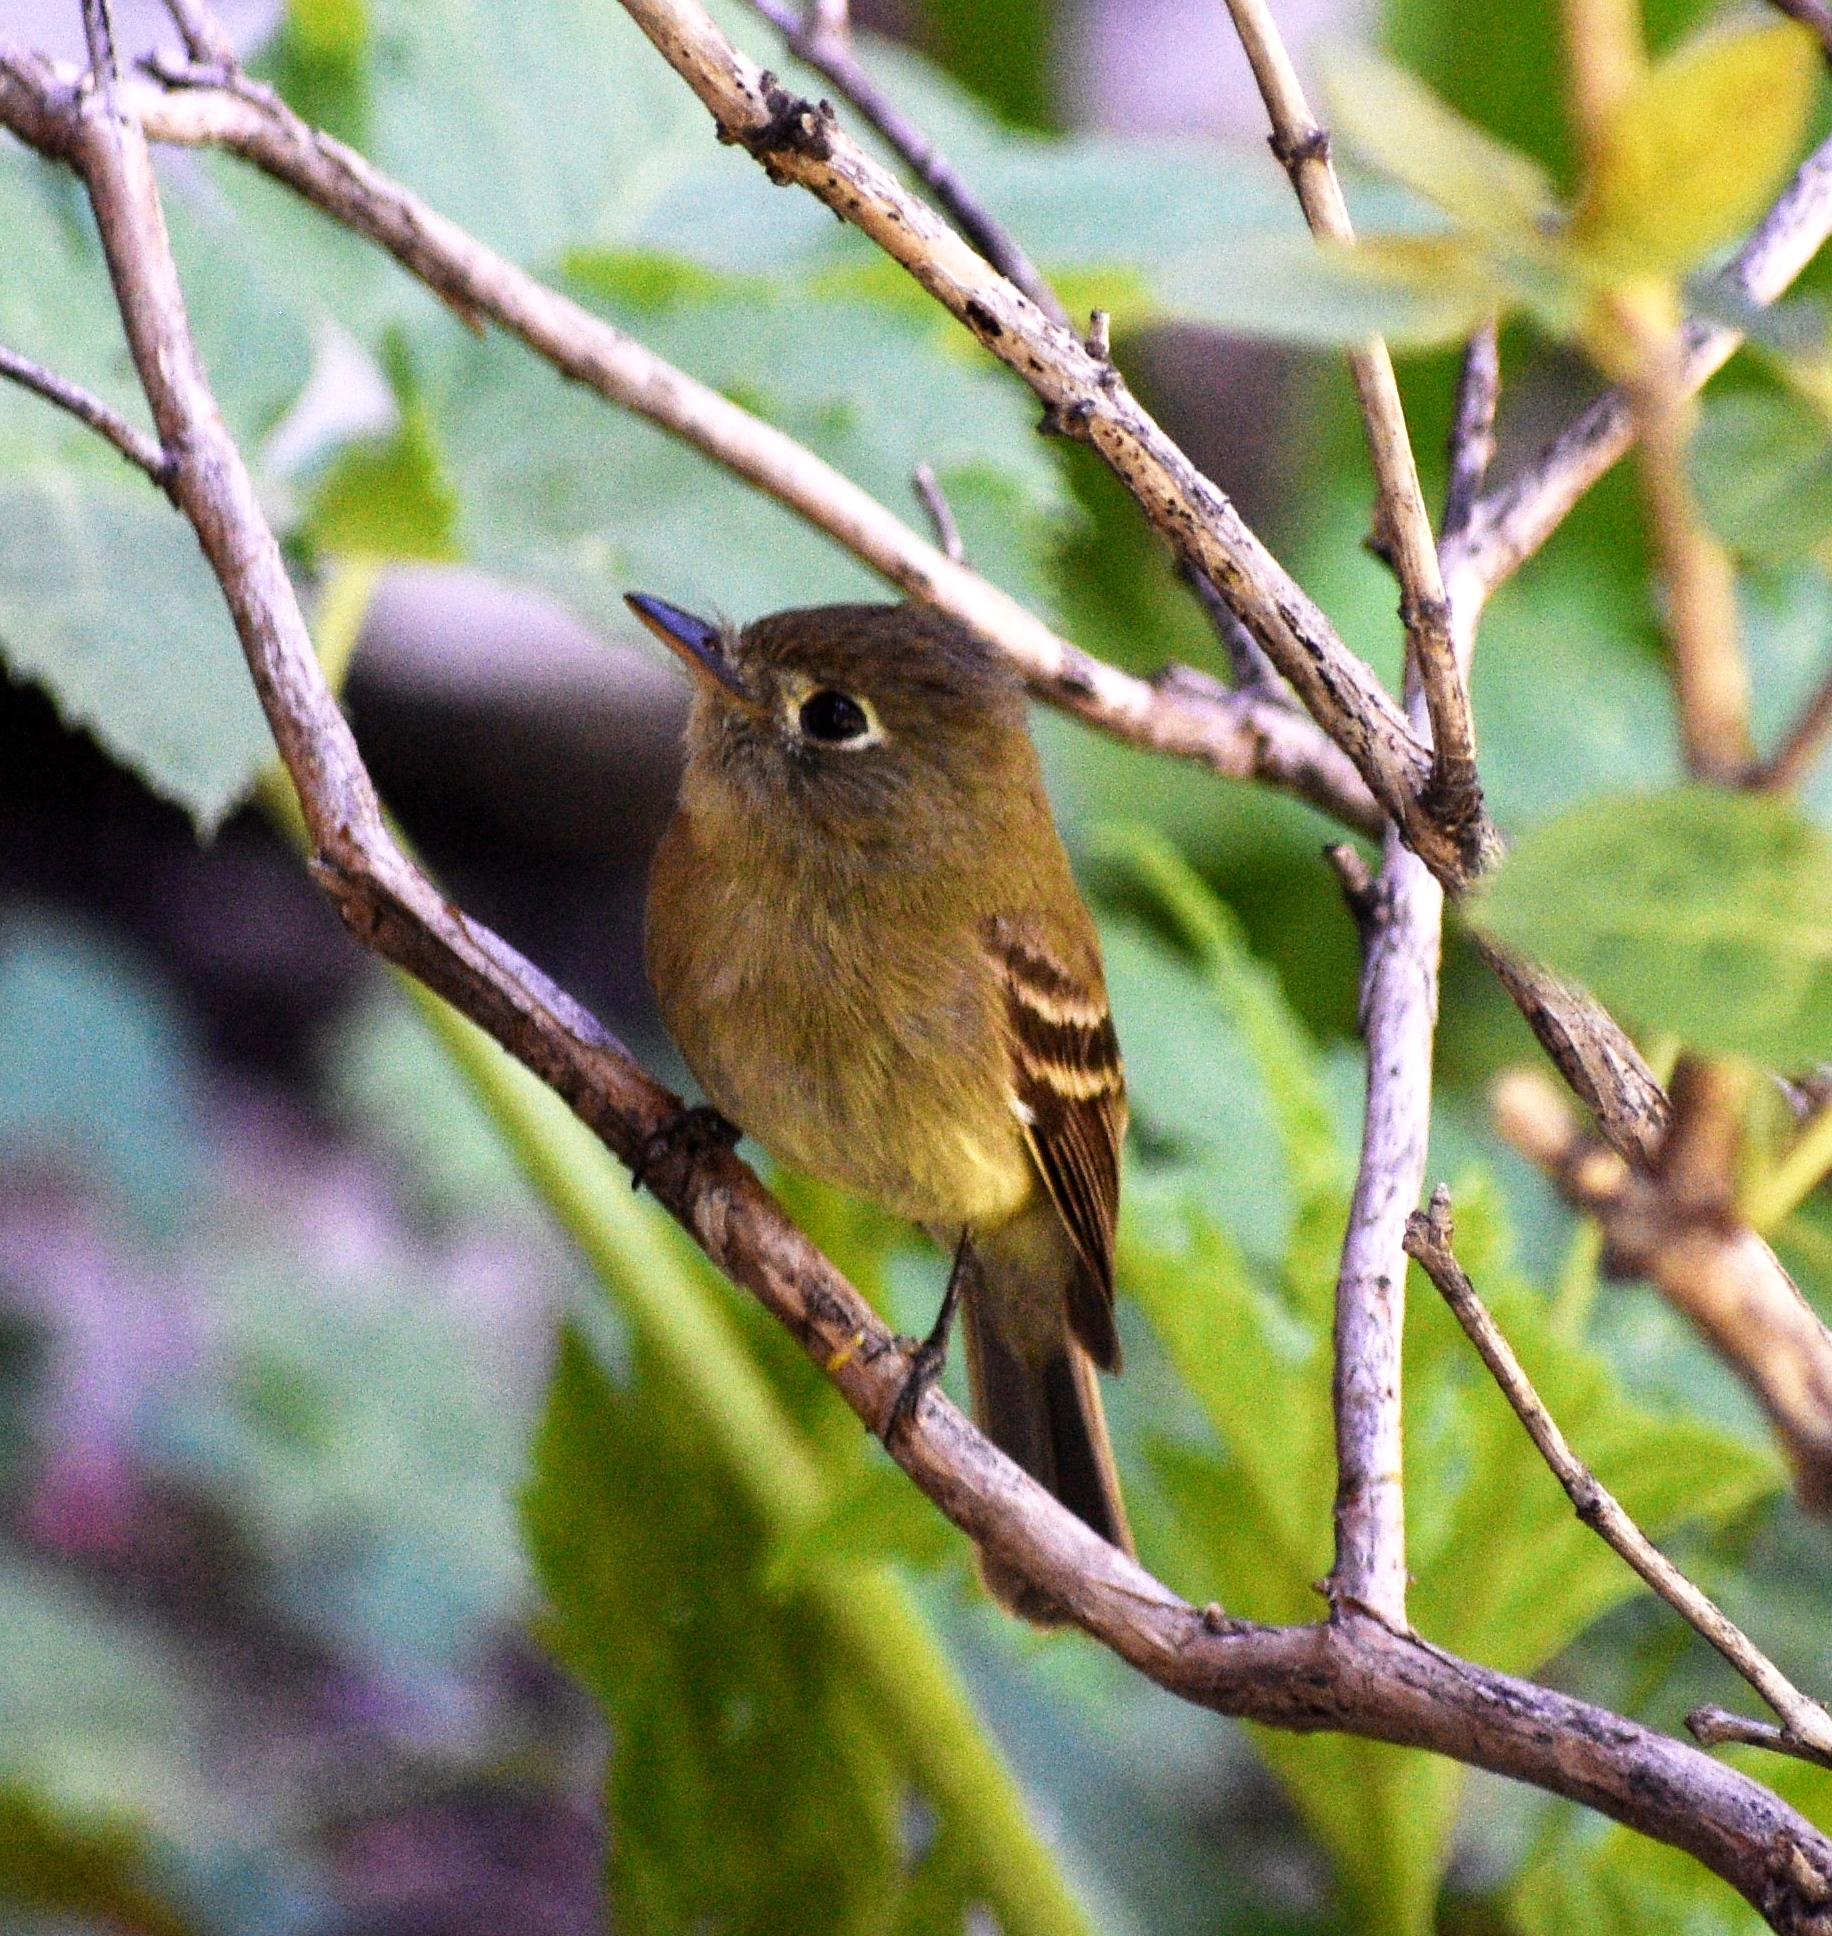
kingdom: Animalia
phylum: Chordata
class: Aves
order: Passeriformes
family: Tyrannidae
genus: Empidonax
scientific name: Empidonax difficilis
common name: Pacific-slope flycatcher
